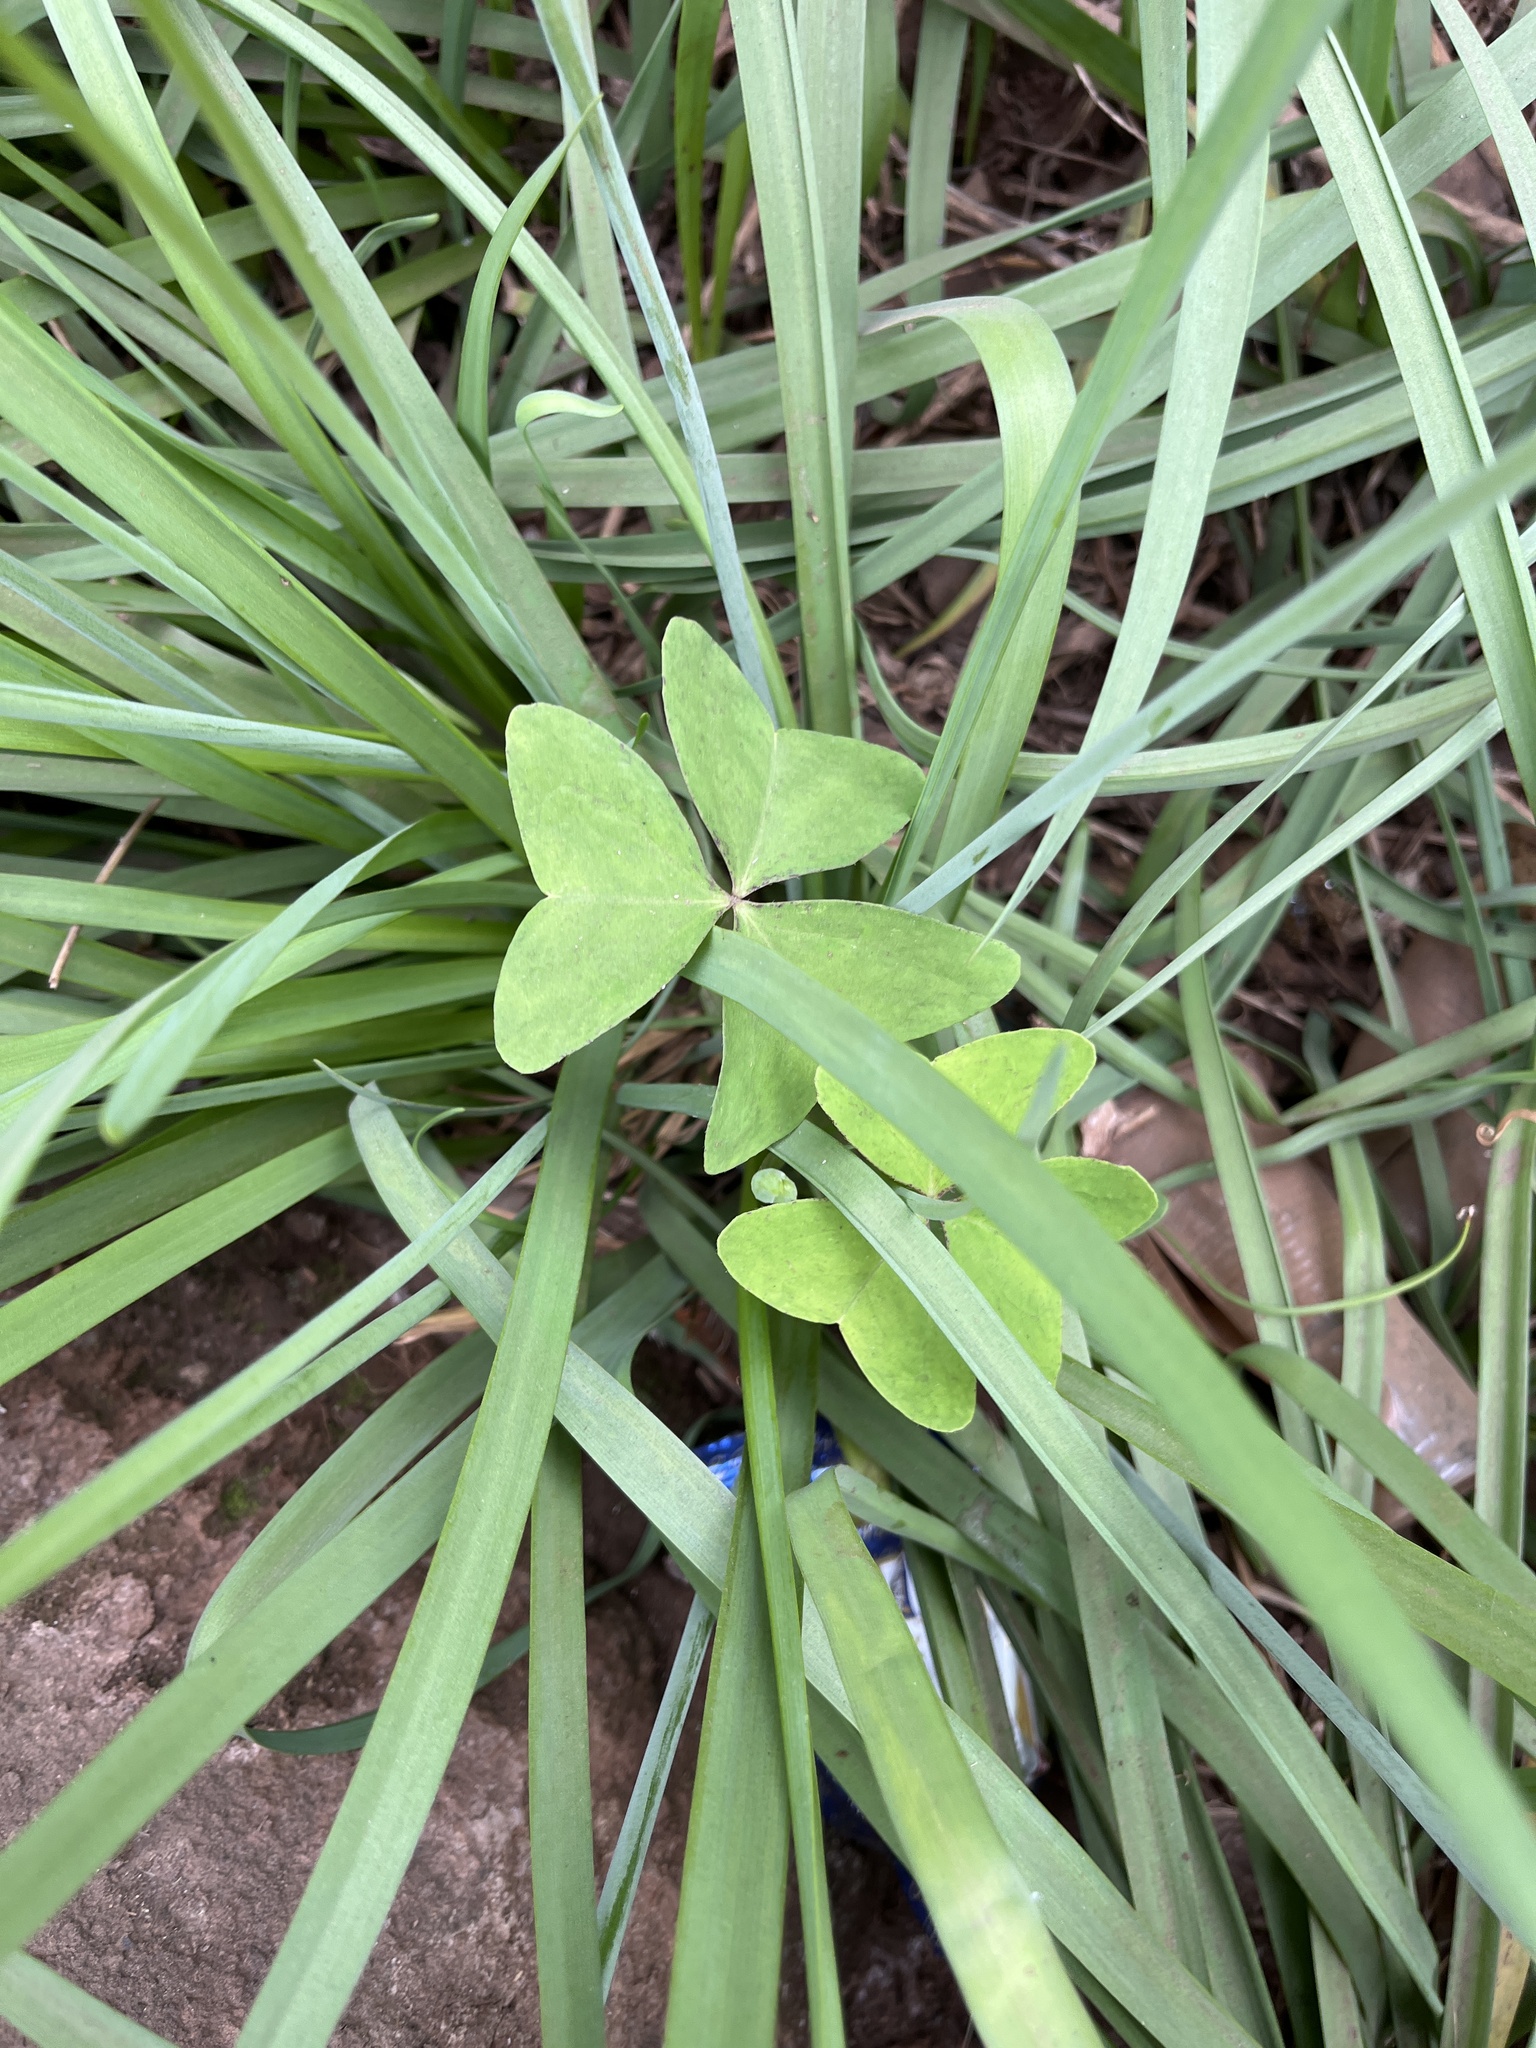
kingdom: Plantae
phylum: Tracheophyta
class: Magnoliopsida
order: Oxalidales
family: Oxalidaceae
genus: Oxalis
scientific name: Oxalis latifolia
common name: Garden pink-sorrel
